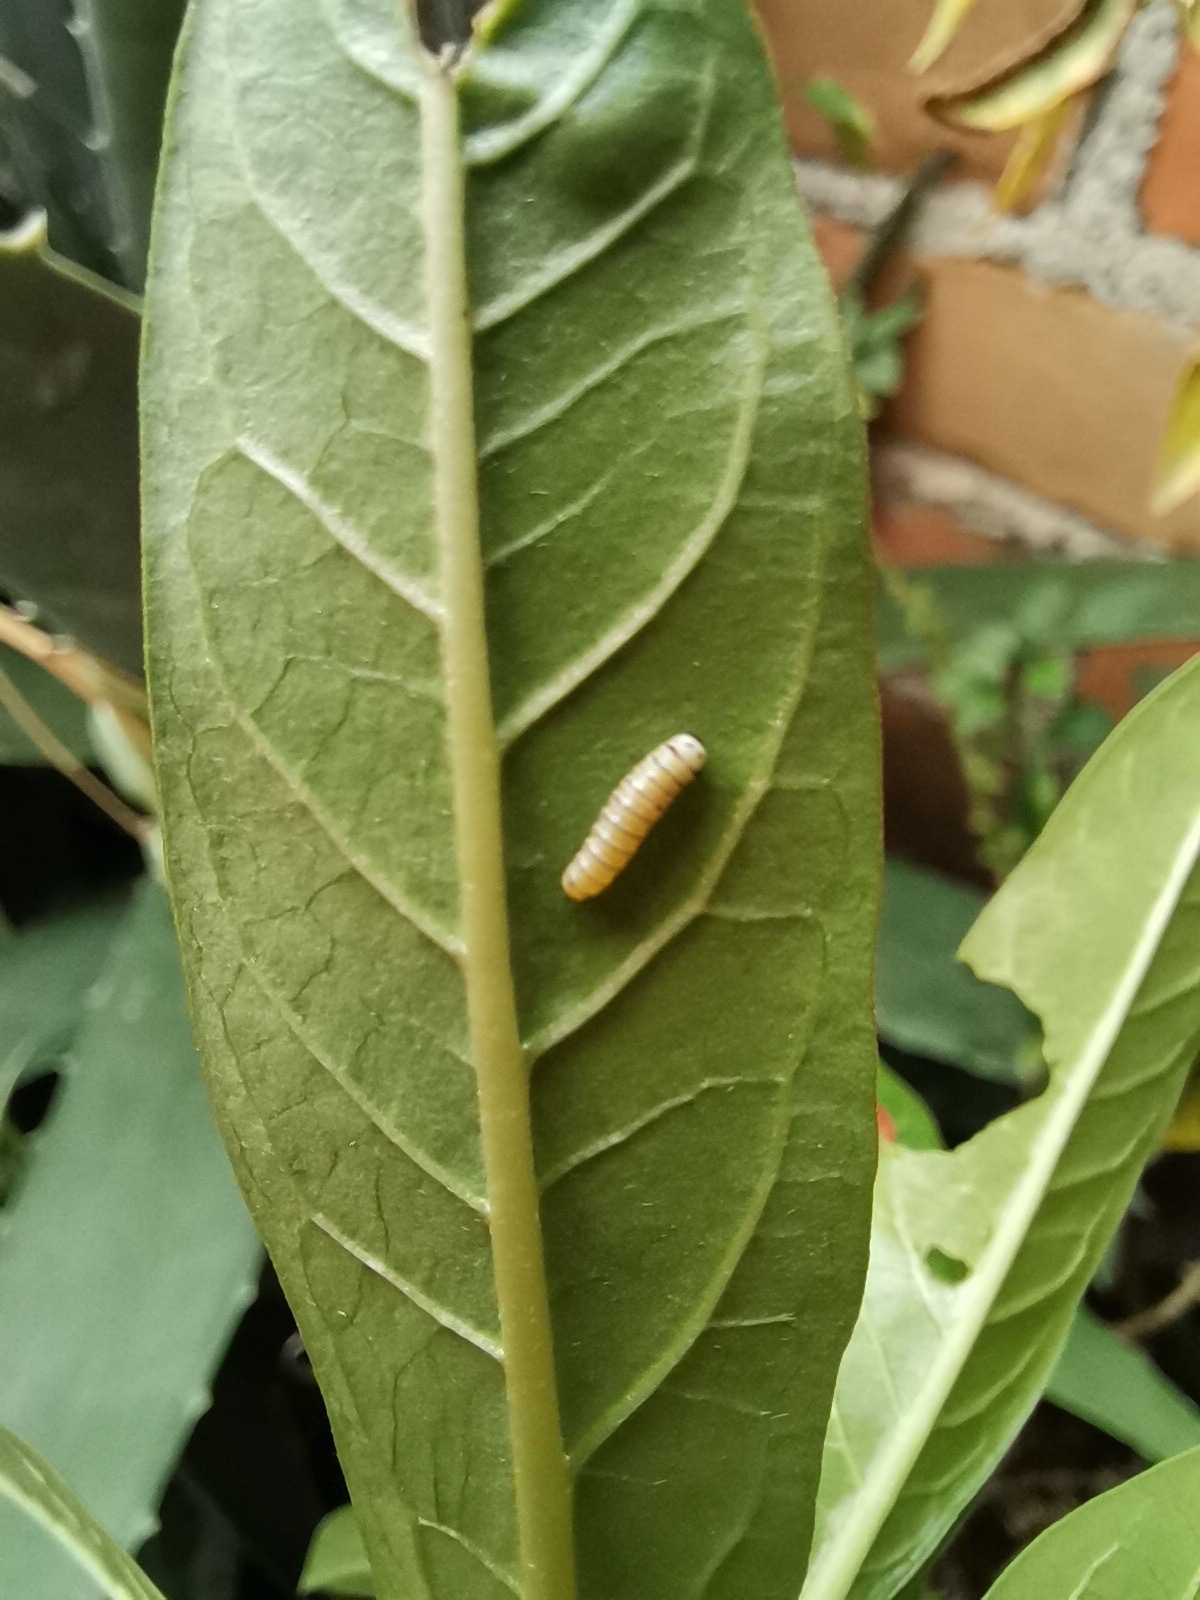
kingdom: Animalia
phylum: Arthropoda
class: Insecta
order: Lepidoptera
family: Nymphalidae
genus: Danaus
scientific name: Danaus plexippus
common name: Monarch
